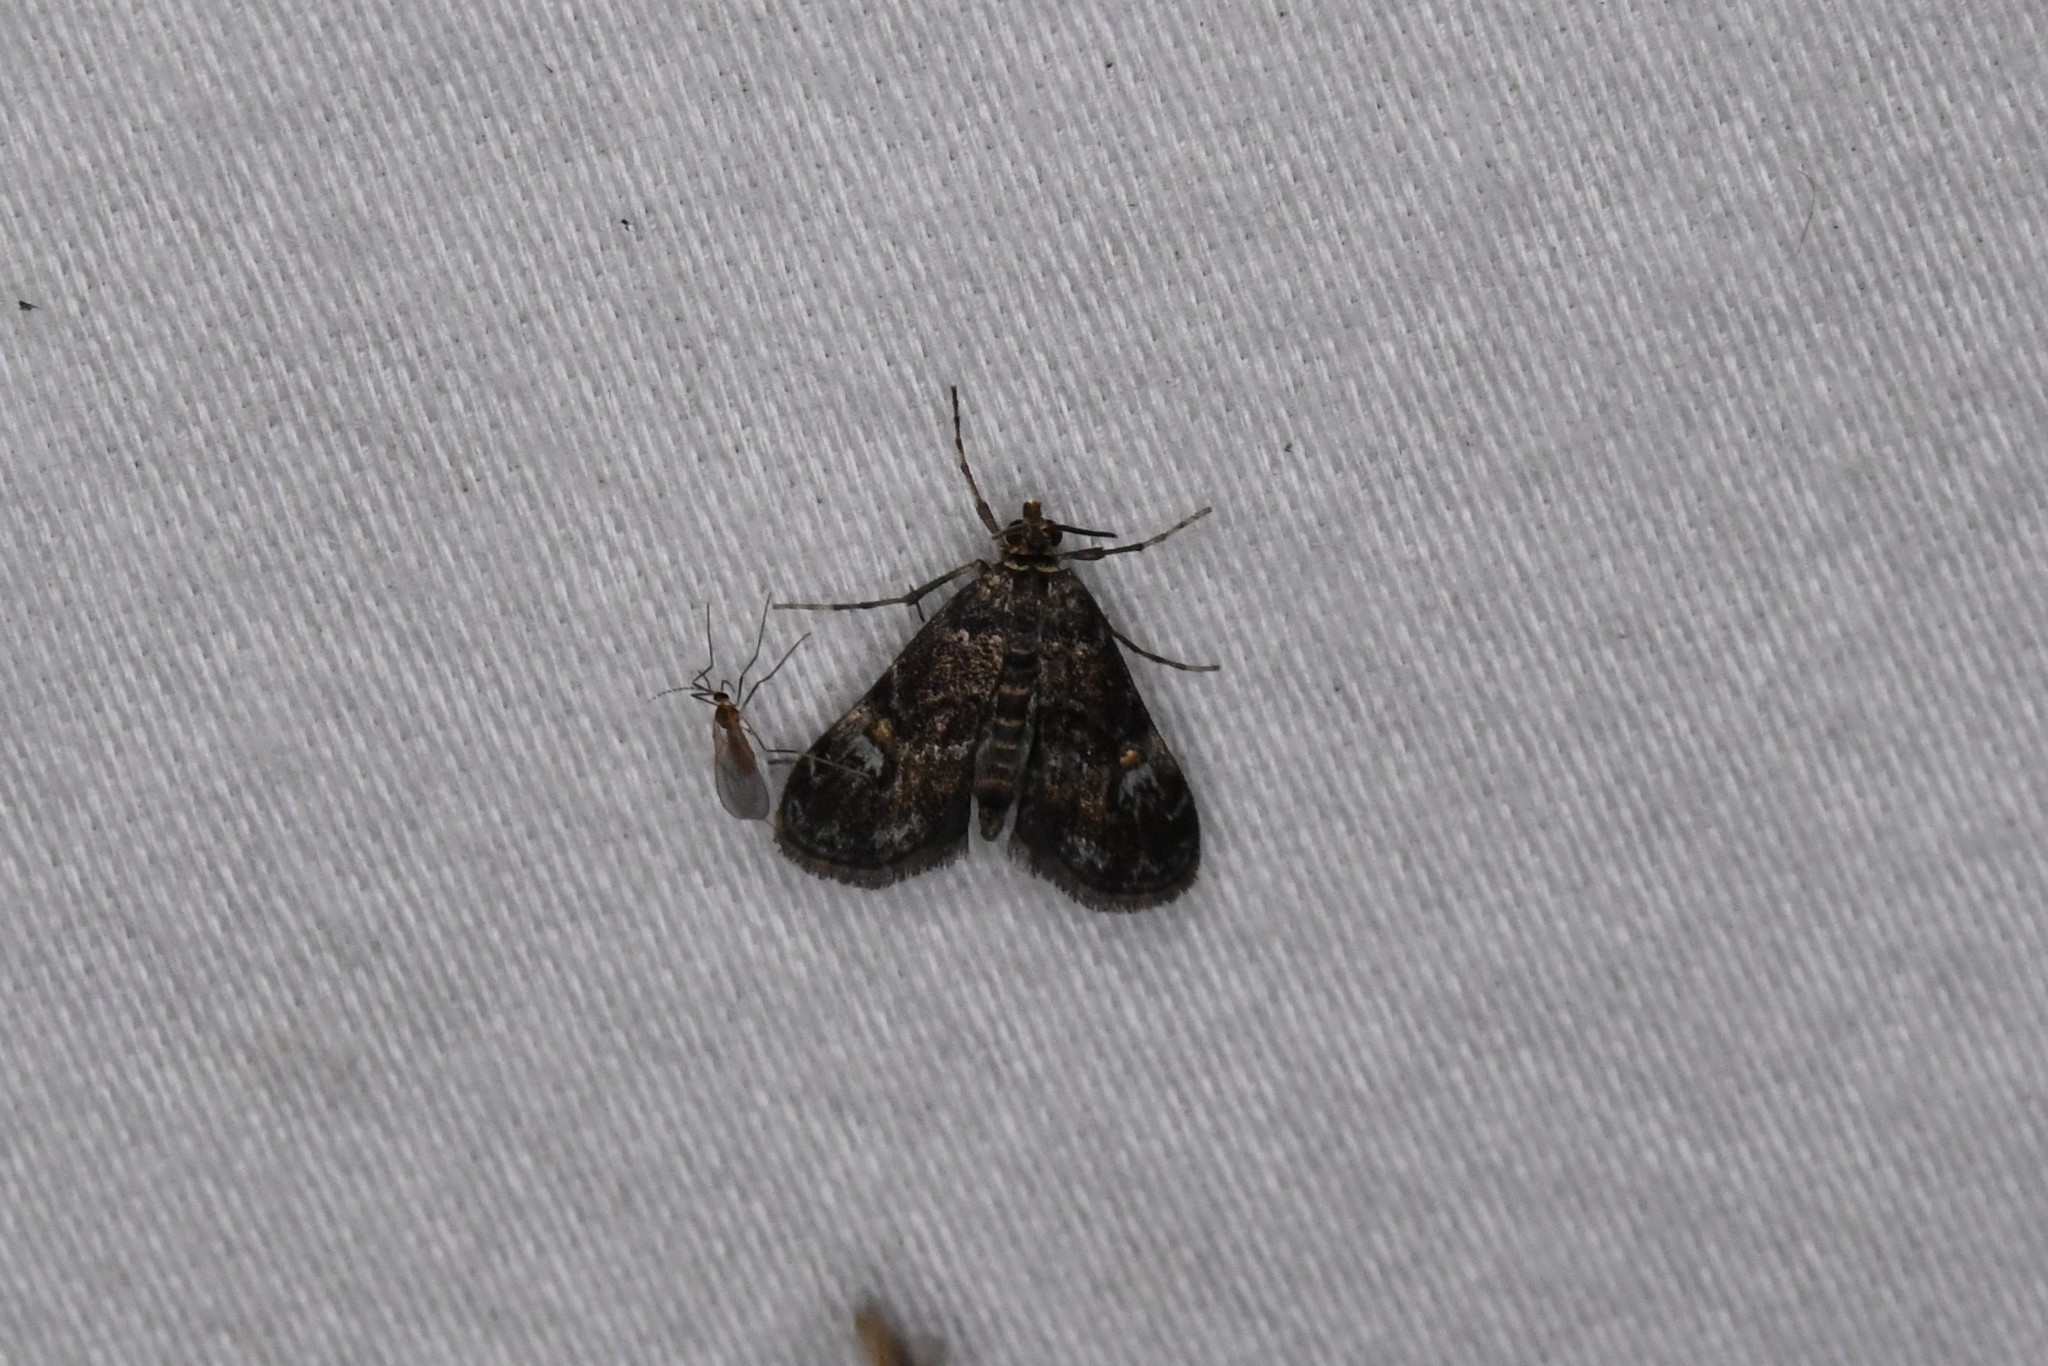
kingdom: Animalia
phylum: Arthropoda
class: Insecta
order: Lepidoptera
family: Crambidae
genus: Elophila
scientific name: Elophila obliteralis
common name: Waterlily leafcutter moth
